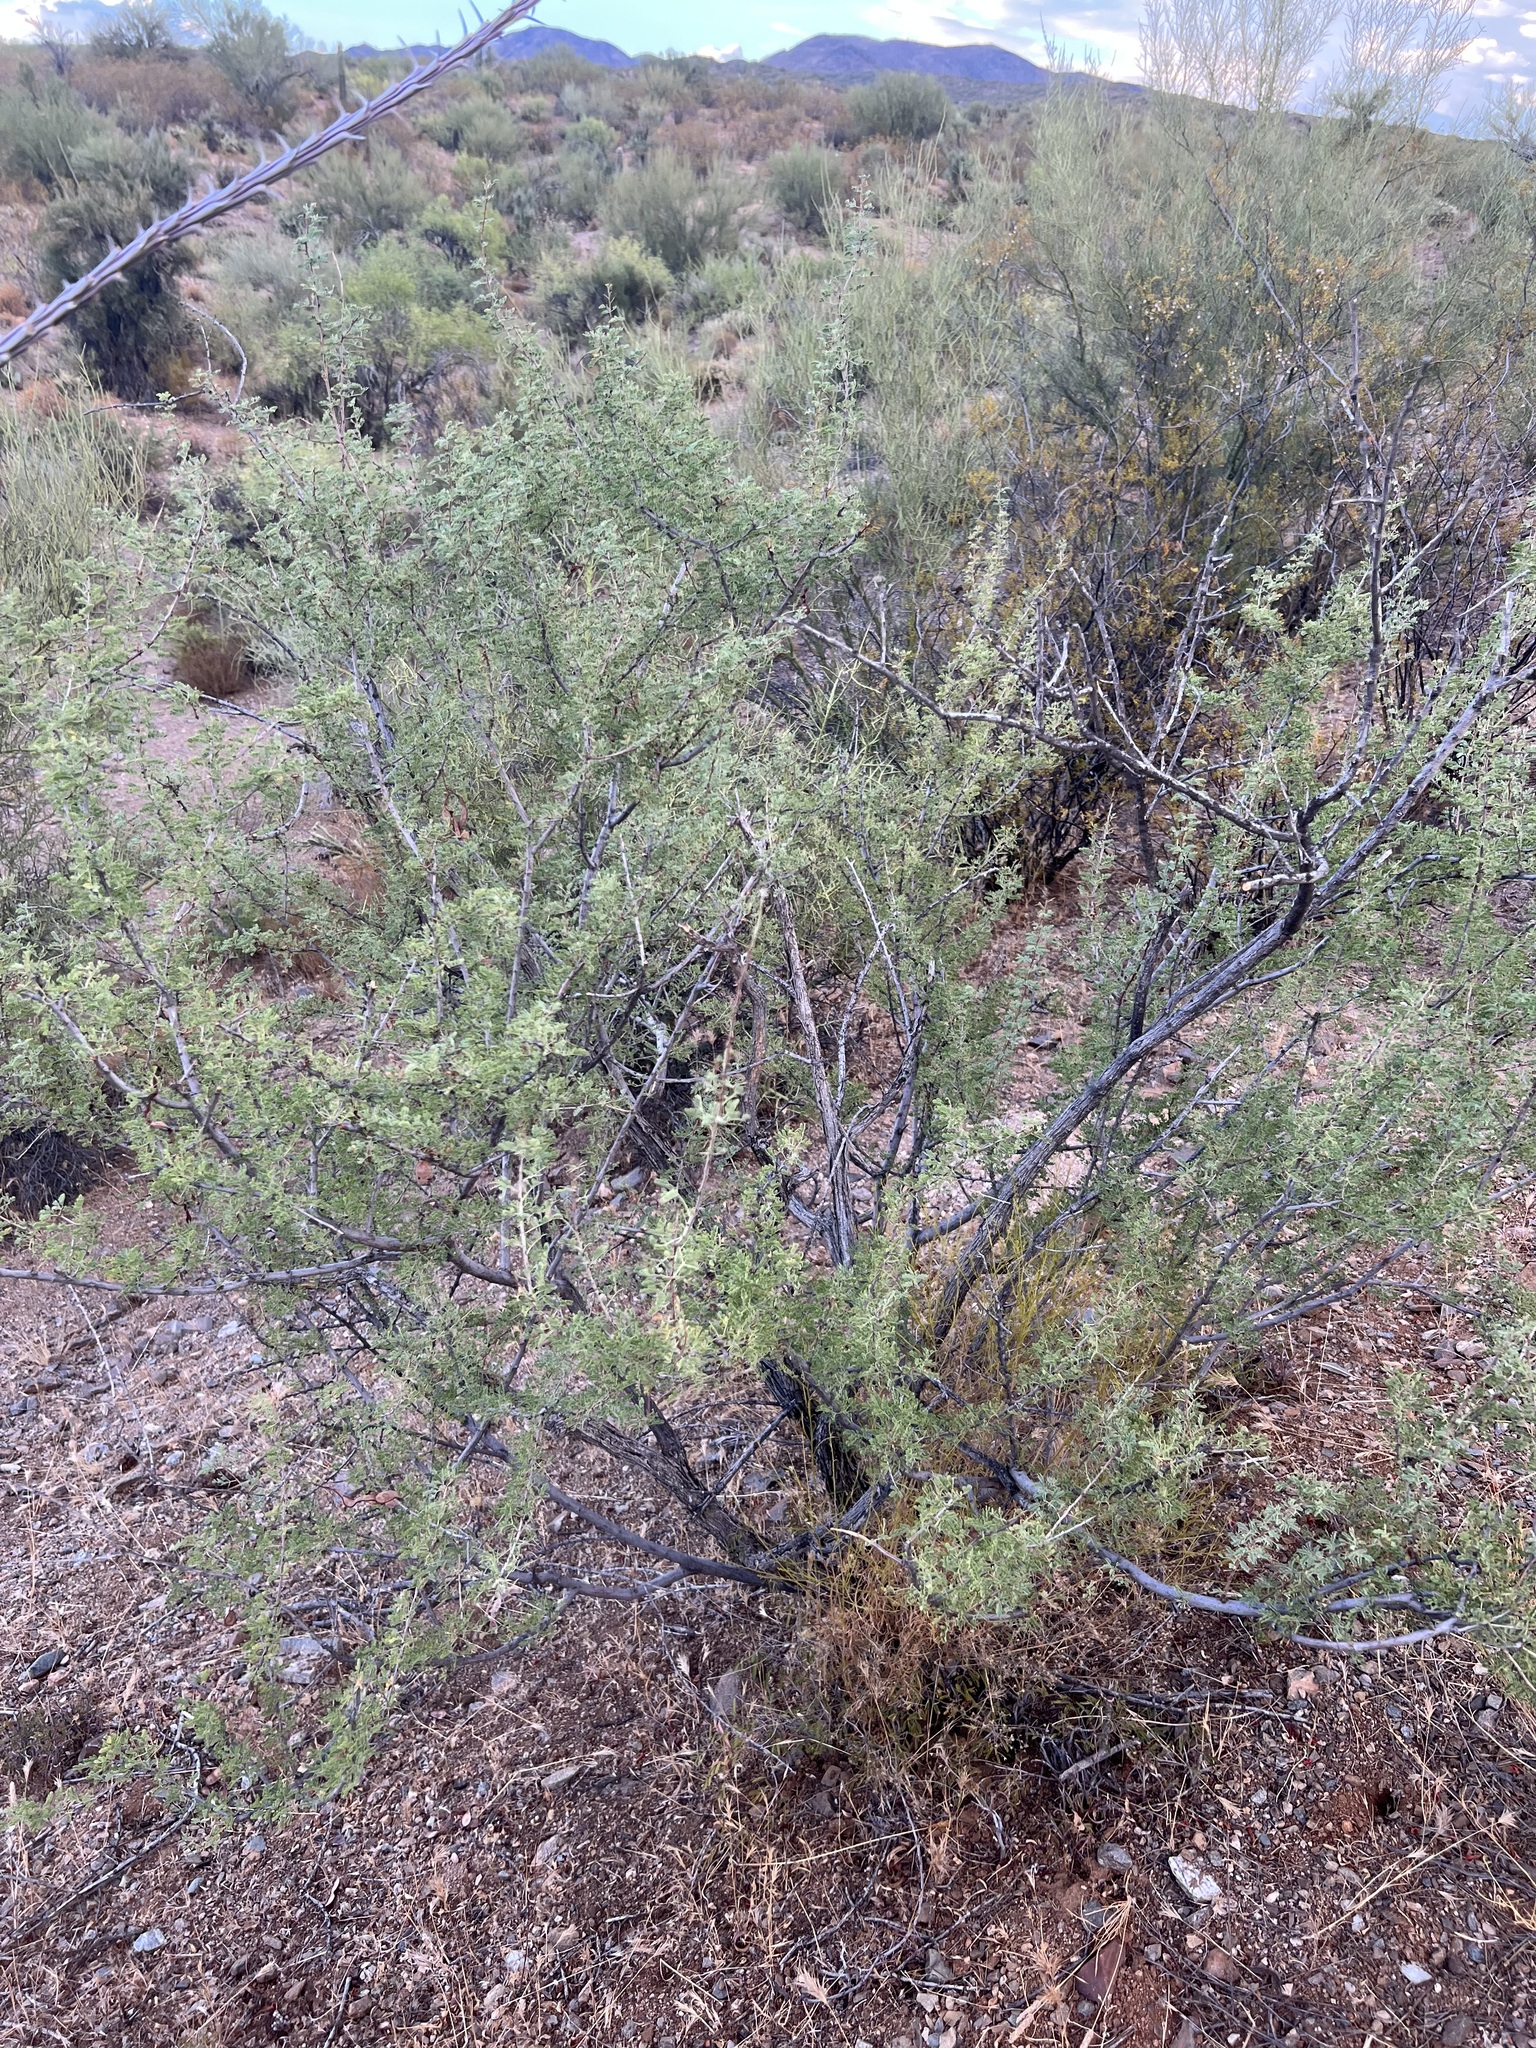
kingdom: Plantae
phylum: Tracheophyta
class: Magnoliopsida
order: Fabales
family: Fabaceae
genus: Senegalia
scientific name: Senegalia greggii
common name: Texas-mimosa
